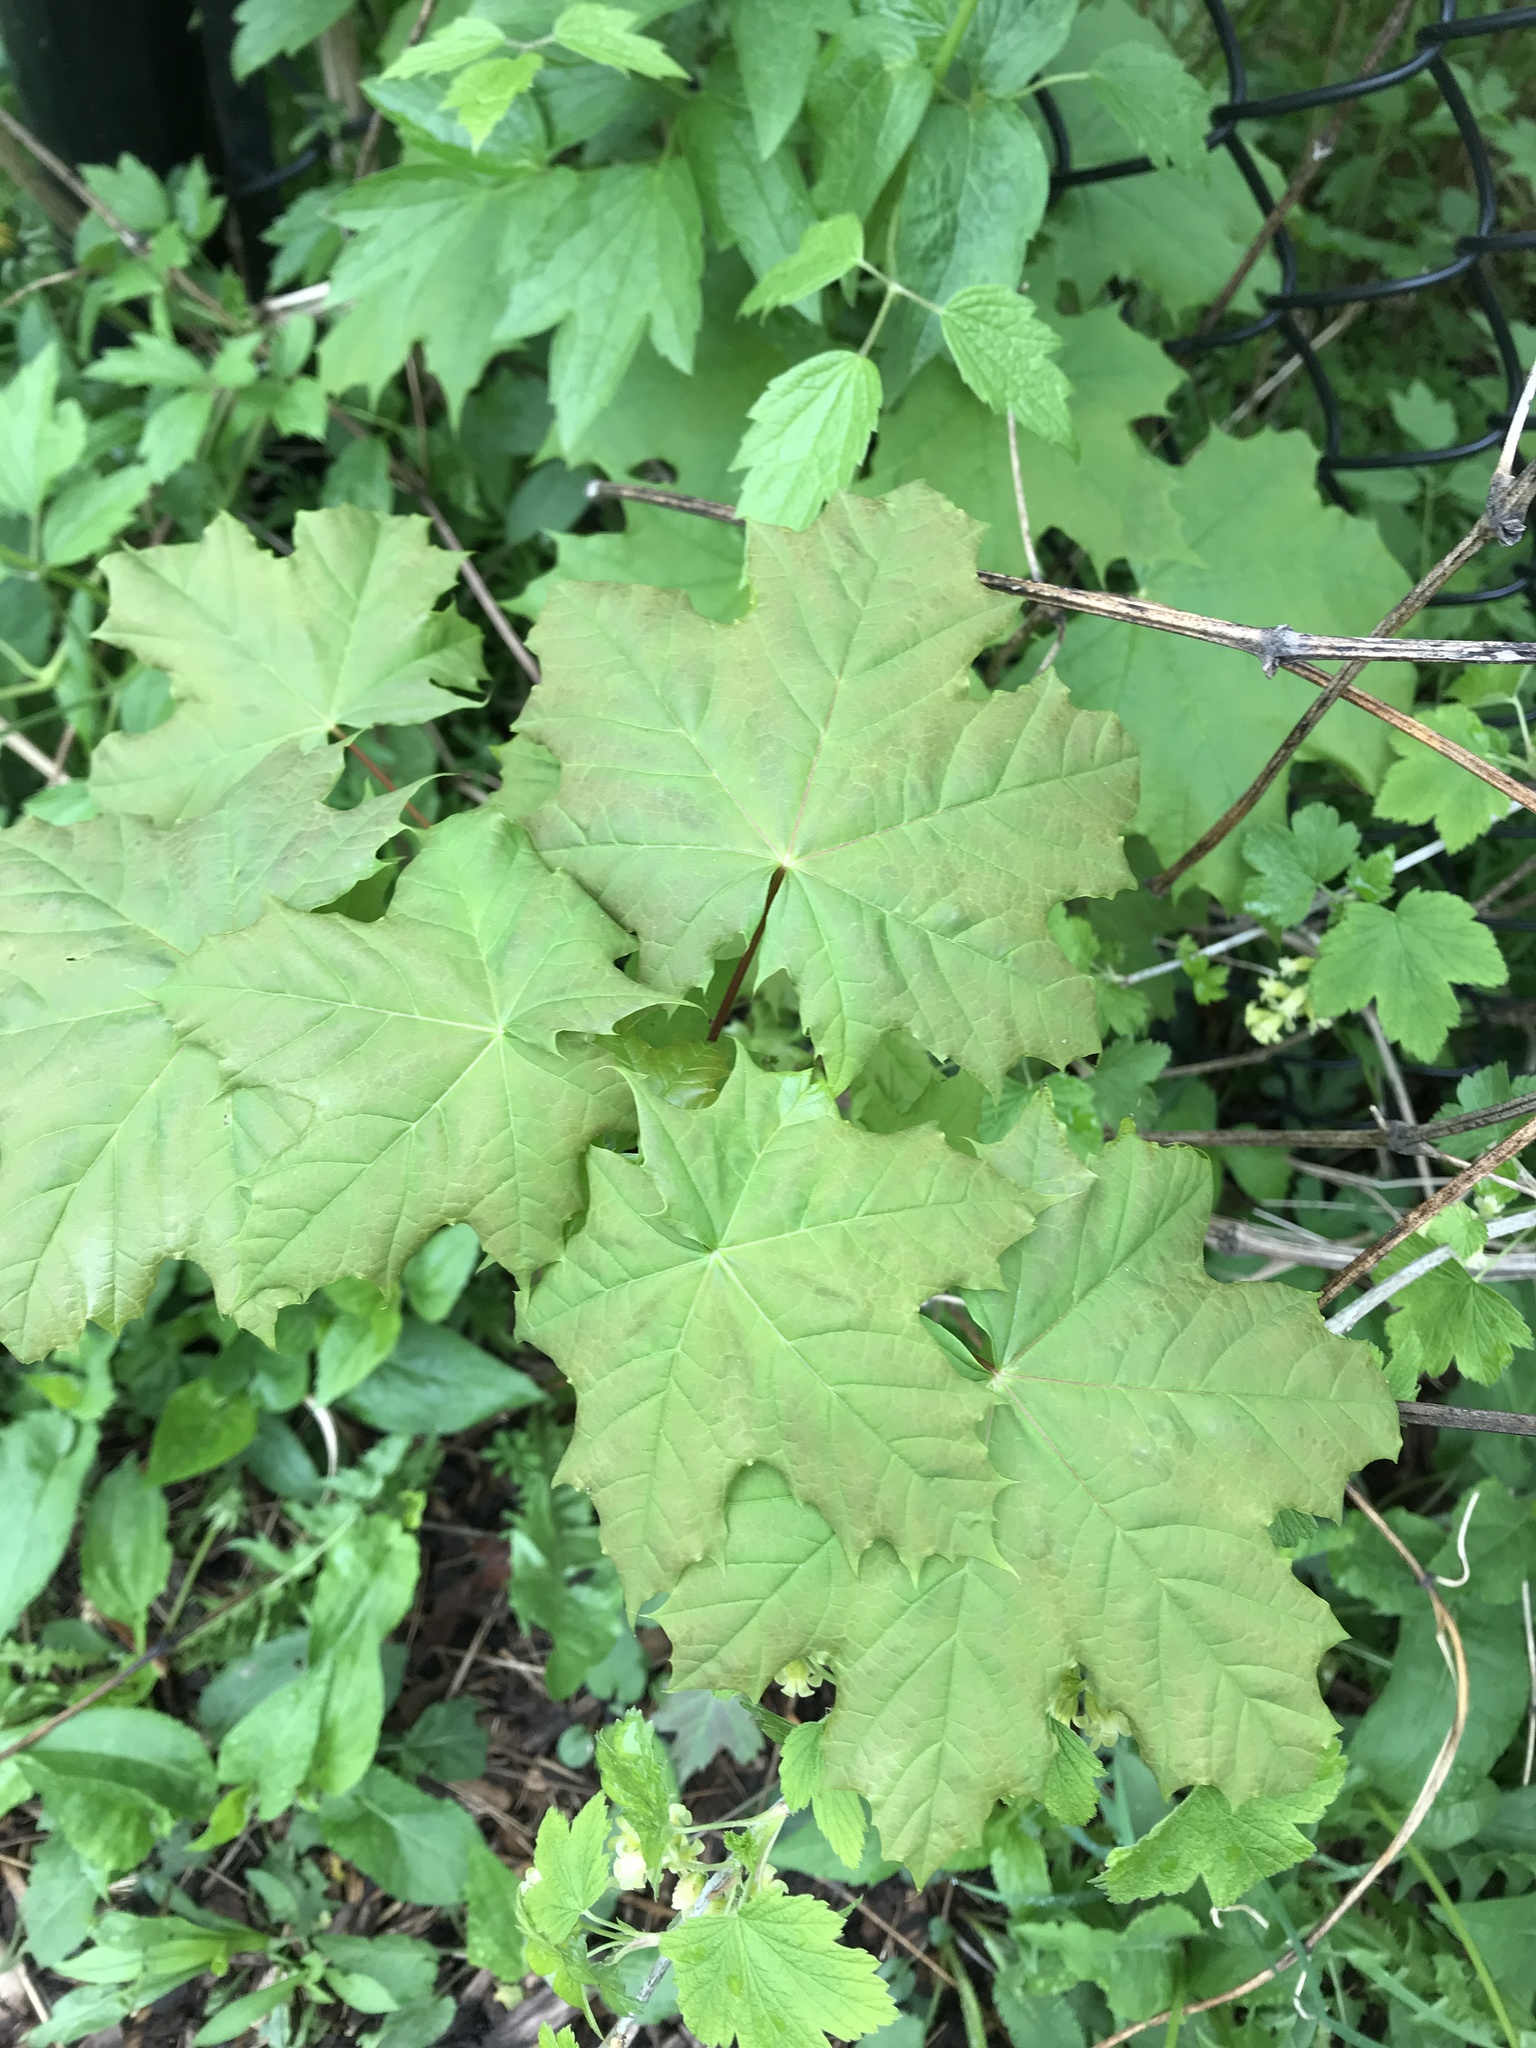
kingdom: Plantae
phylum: Tracheophyta
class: Magnoliopsida
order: Sapindales
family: Sapindaceae
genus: Acer
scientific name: Acer platanoides
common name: Norway maple
